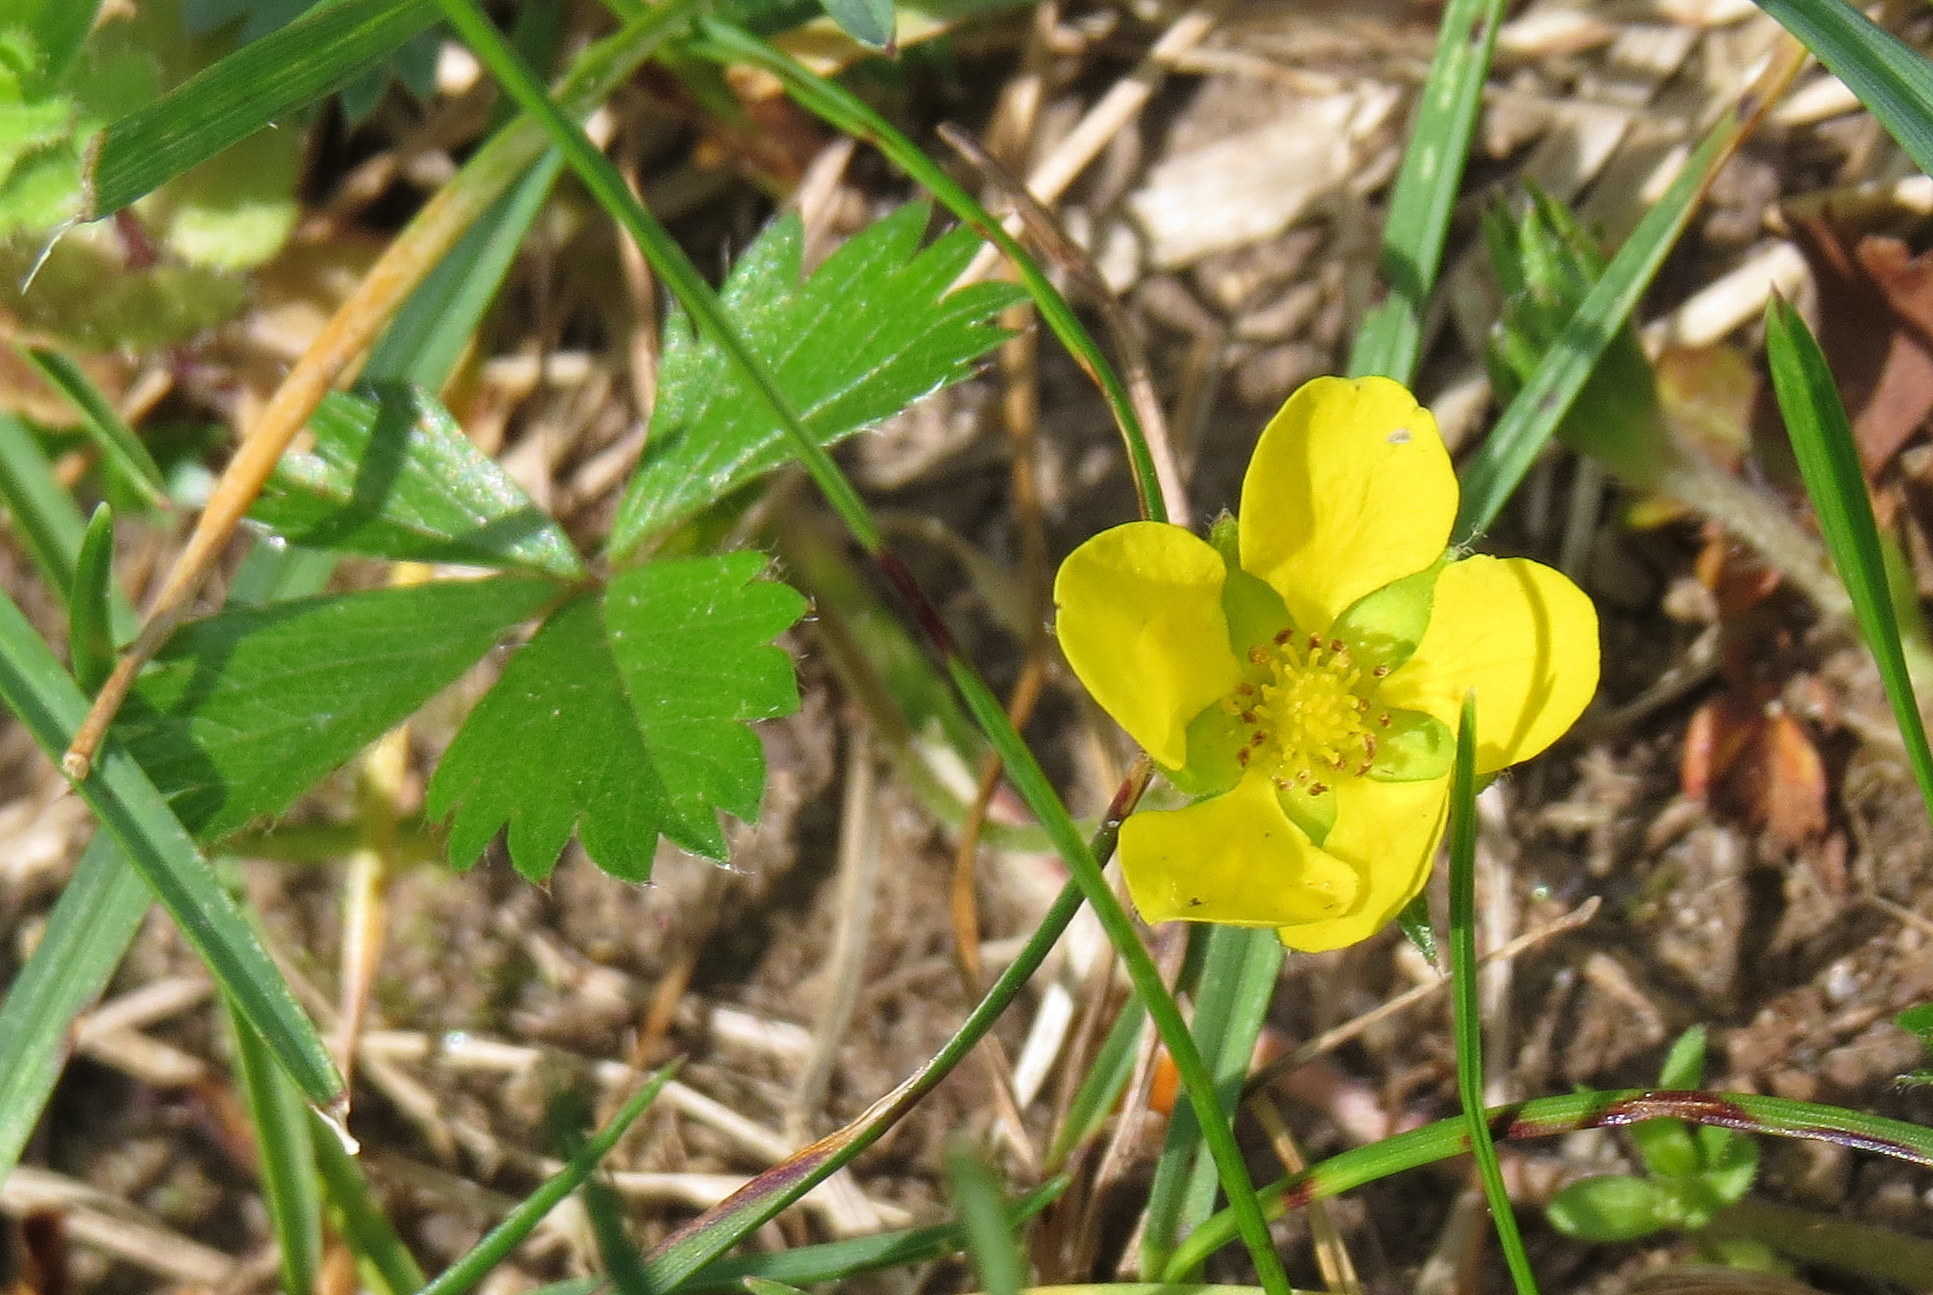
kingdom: Plantae
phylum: Tracheophyta
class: Magnoliopsida
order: Rosales
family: Rosaceae
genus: Potentilla
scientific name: Potentilla canadensis
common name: Canada cinquefoil
